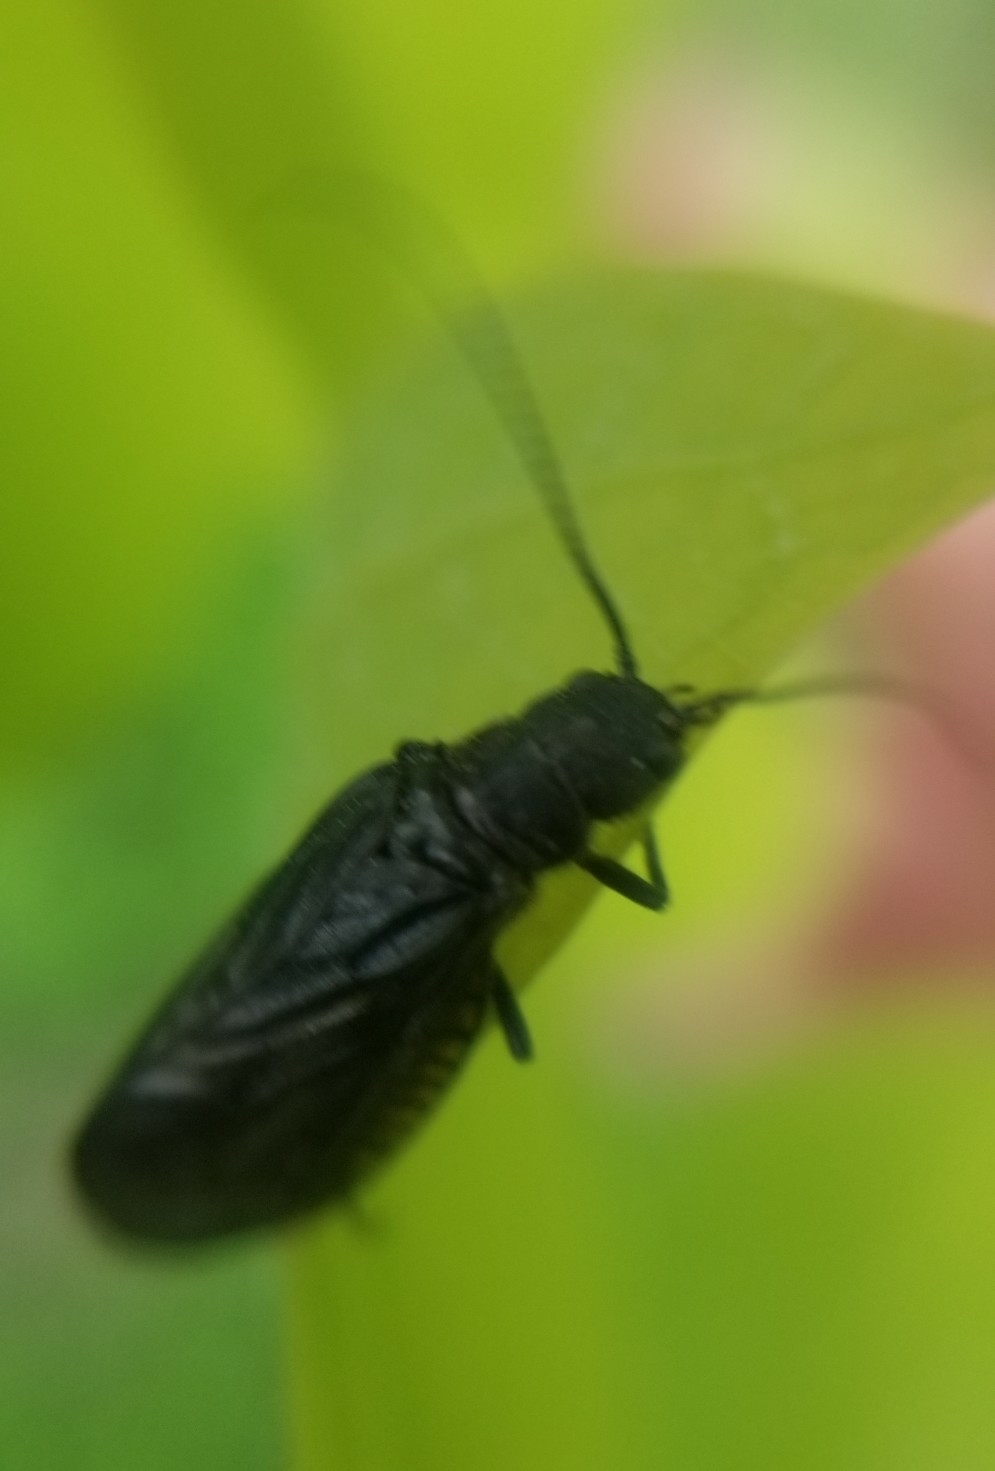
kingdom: Animalia
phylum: Arthropoda
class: Insecta
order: Megaloptera
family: Sialidae
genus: Sialis
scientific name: Sialis
